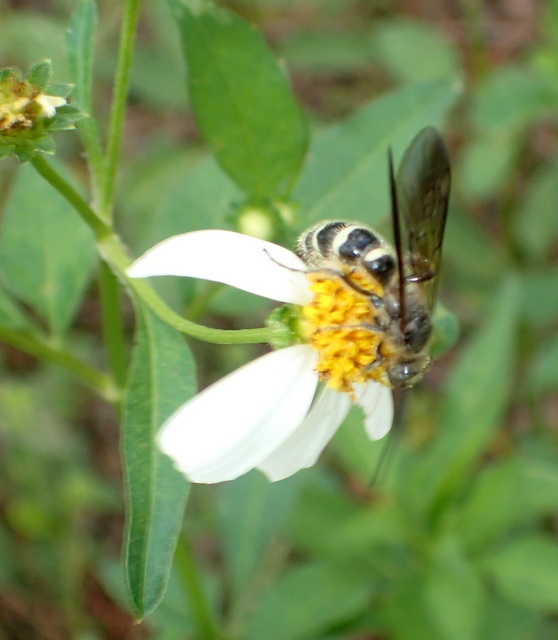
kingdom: Animalia
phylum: Arthropoda
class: Insecta
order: Hymenoptera
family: Scoliidae
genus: Dielis
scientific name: Dielis
